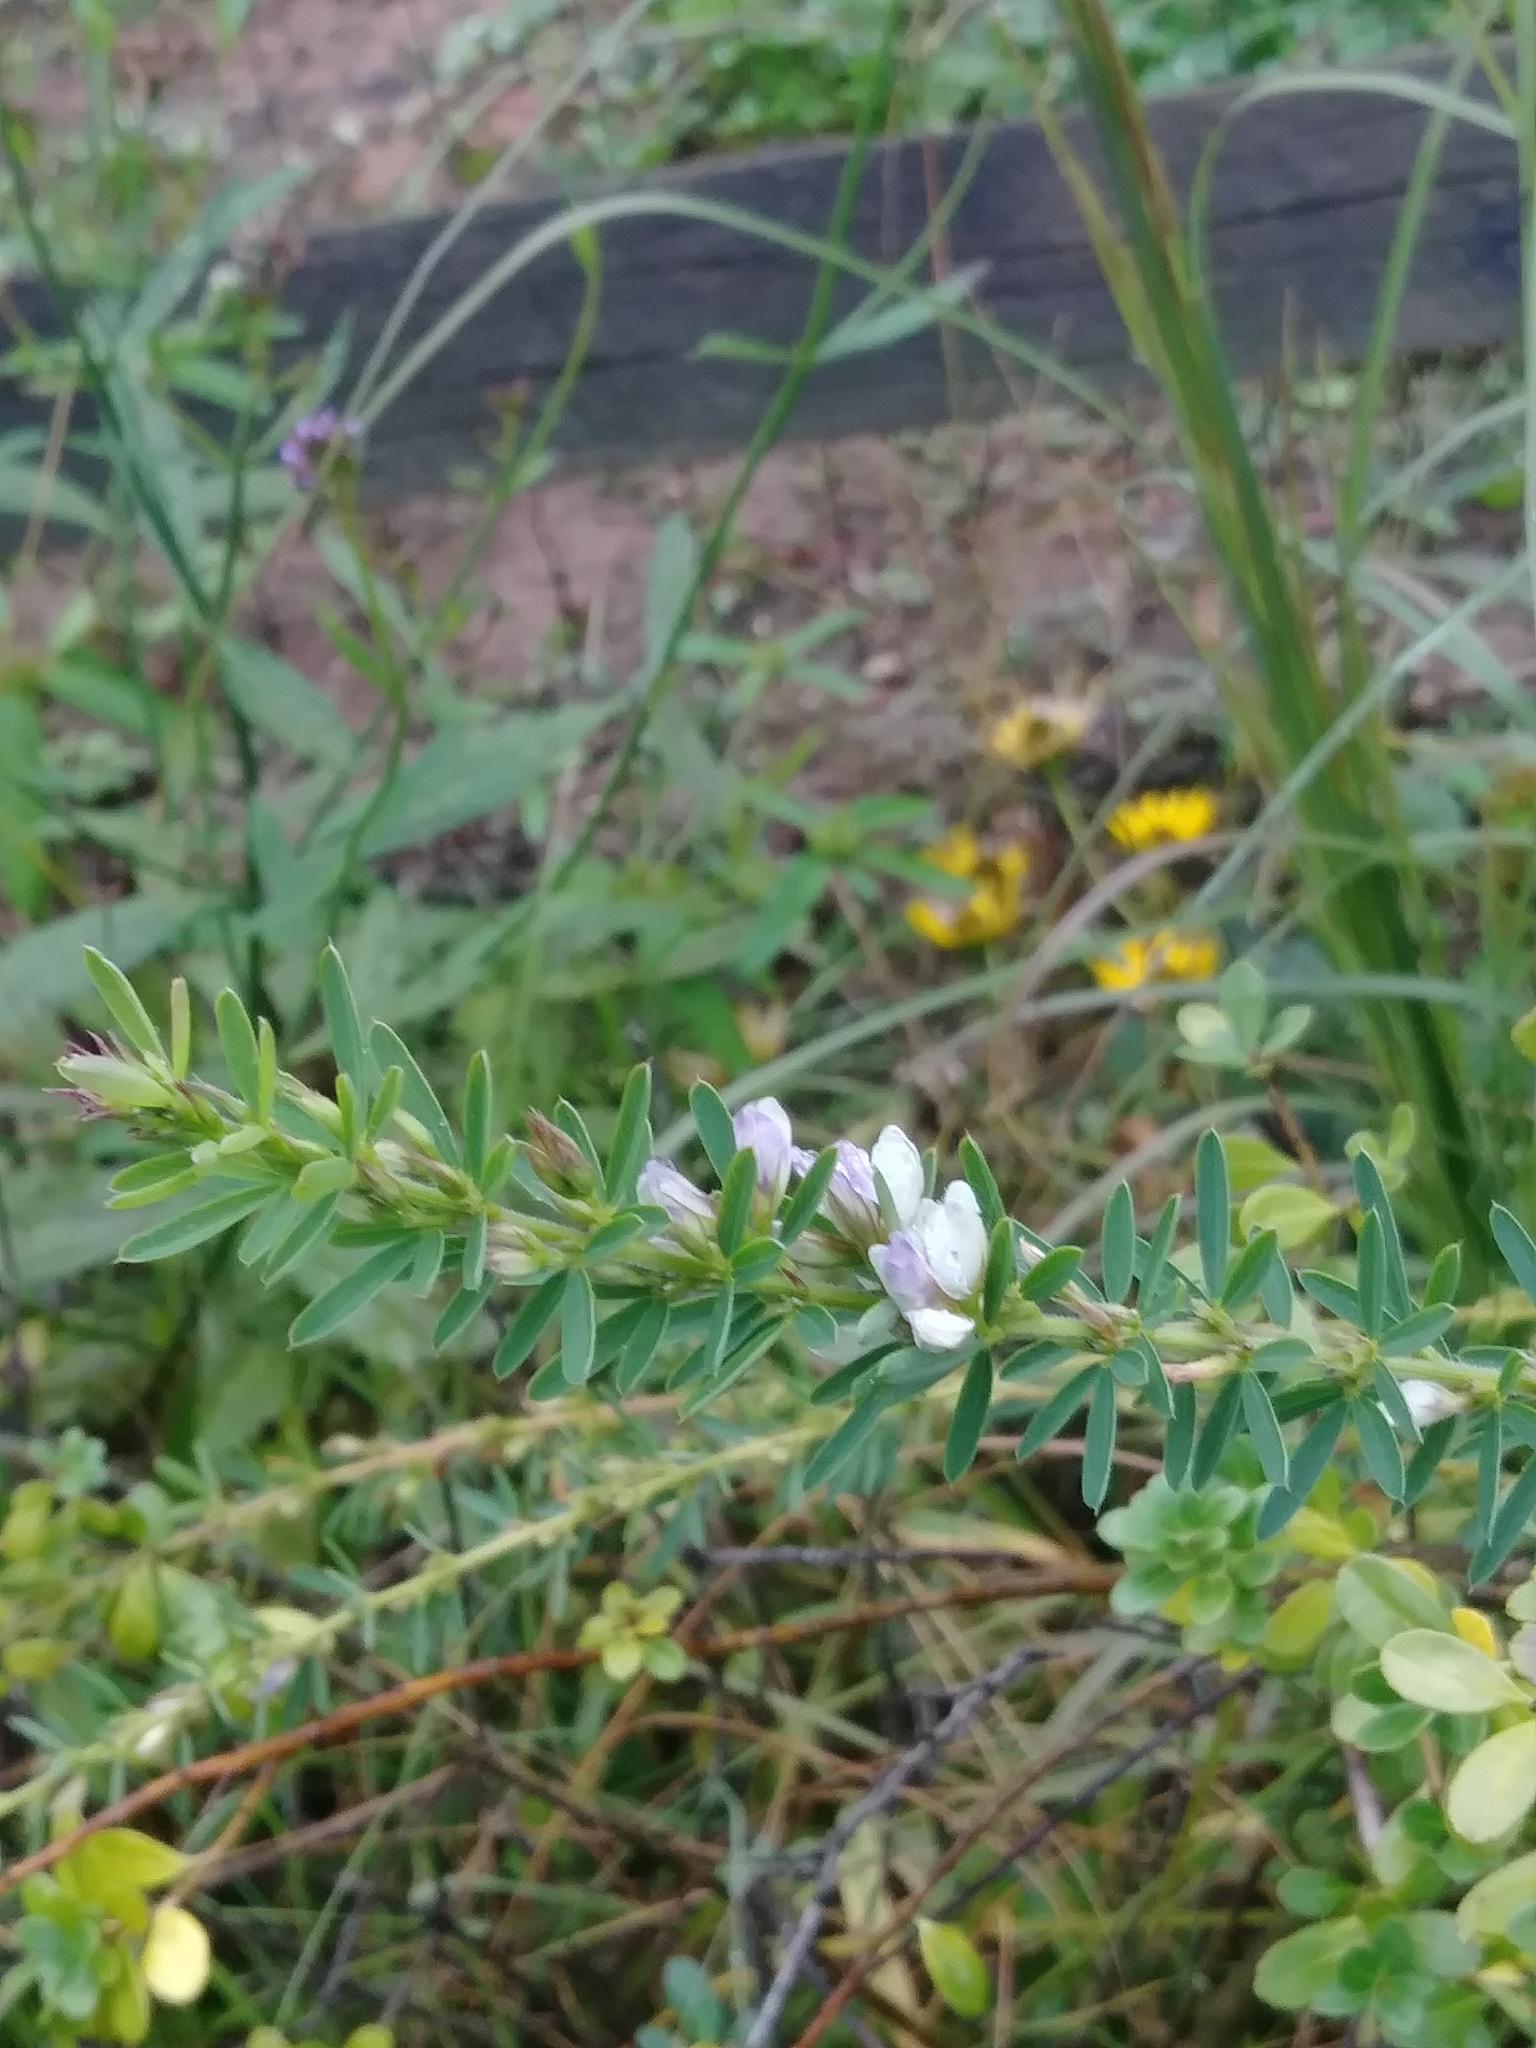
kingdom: Plantae
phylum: Tracheophyta
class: Magnoliopsida
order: Fabales
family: Fabaceae
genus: Lespedeza
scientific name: Lespedeza cuneata
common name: Chinese bush-clover
